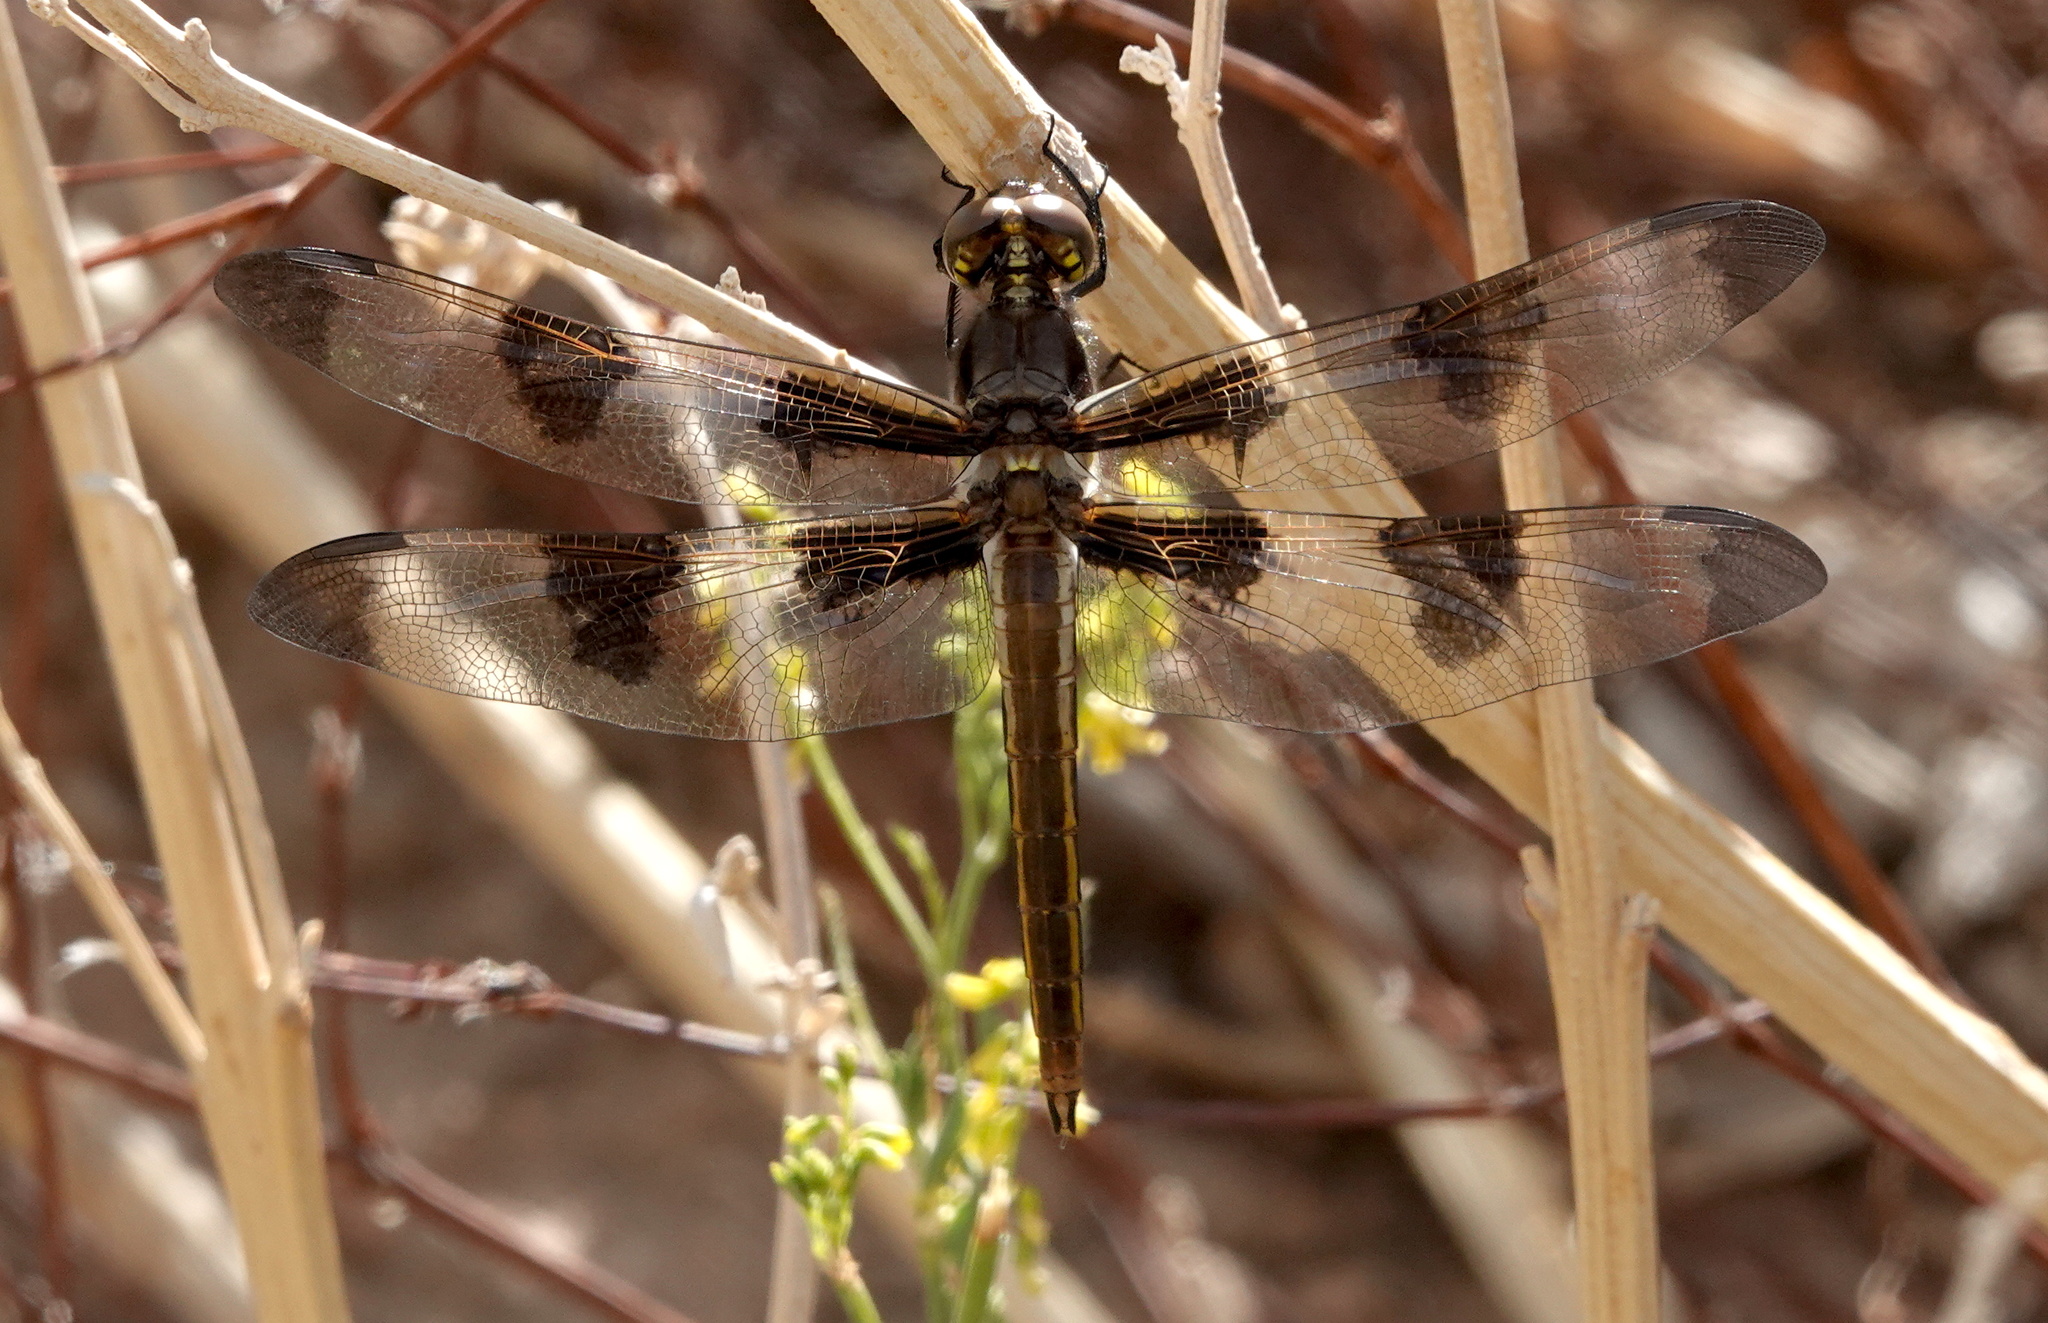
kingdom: Animalia
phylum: Arthropoda
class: Insecta
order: Odonata
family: Libellulidae
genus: Libellula
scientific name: Libellula pulchella
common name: Twelve-spotted skimmer
